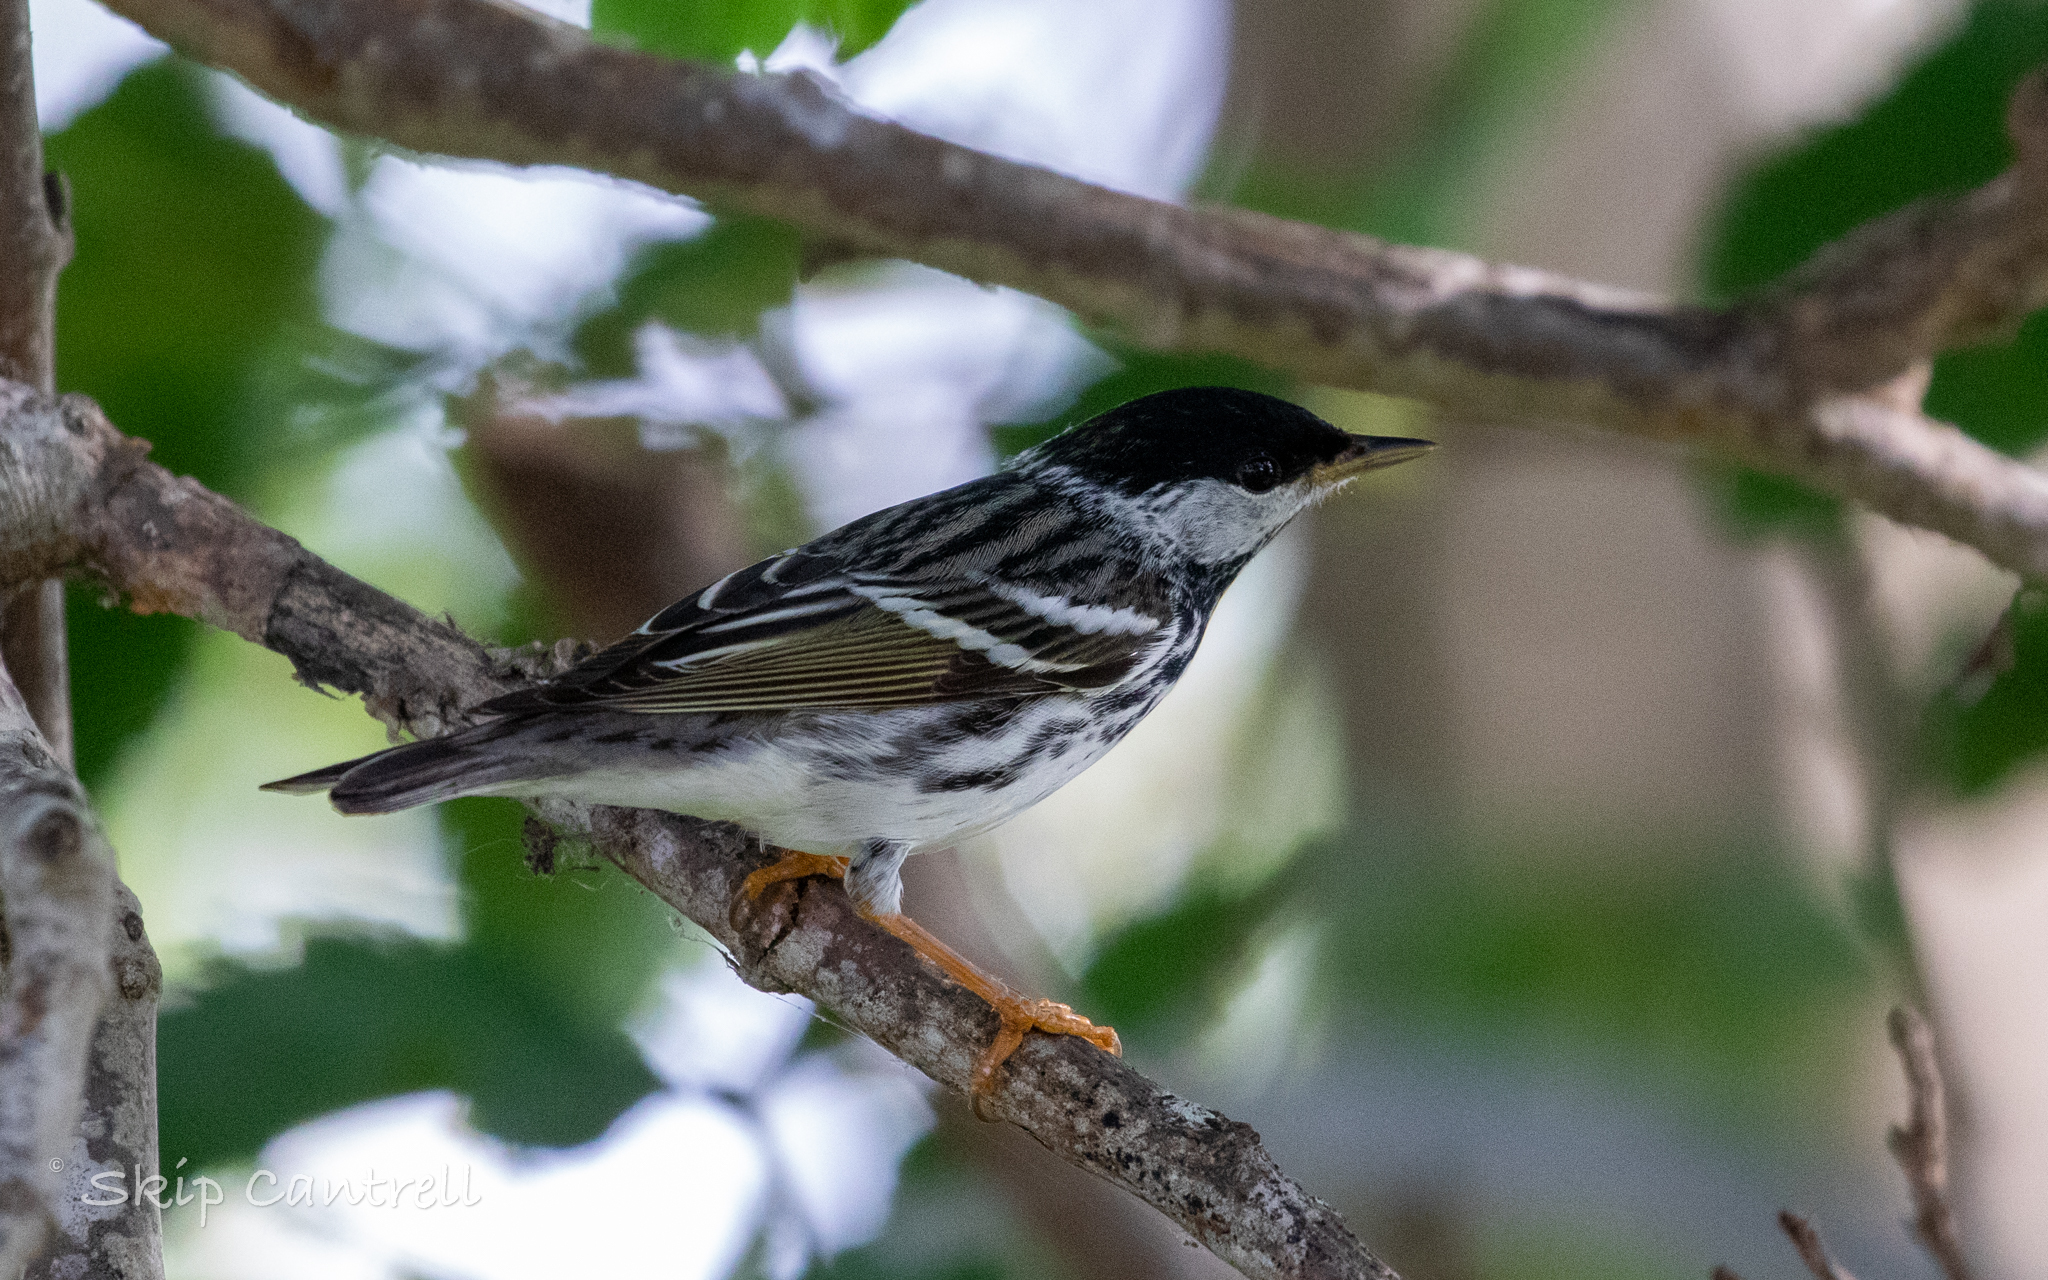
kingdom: Animalia
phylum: Chordata
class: Aves
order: Passeriformes
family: Parulidae
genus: Setophaga
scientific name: Setophaga striata
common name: Blackpoll warbler
